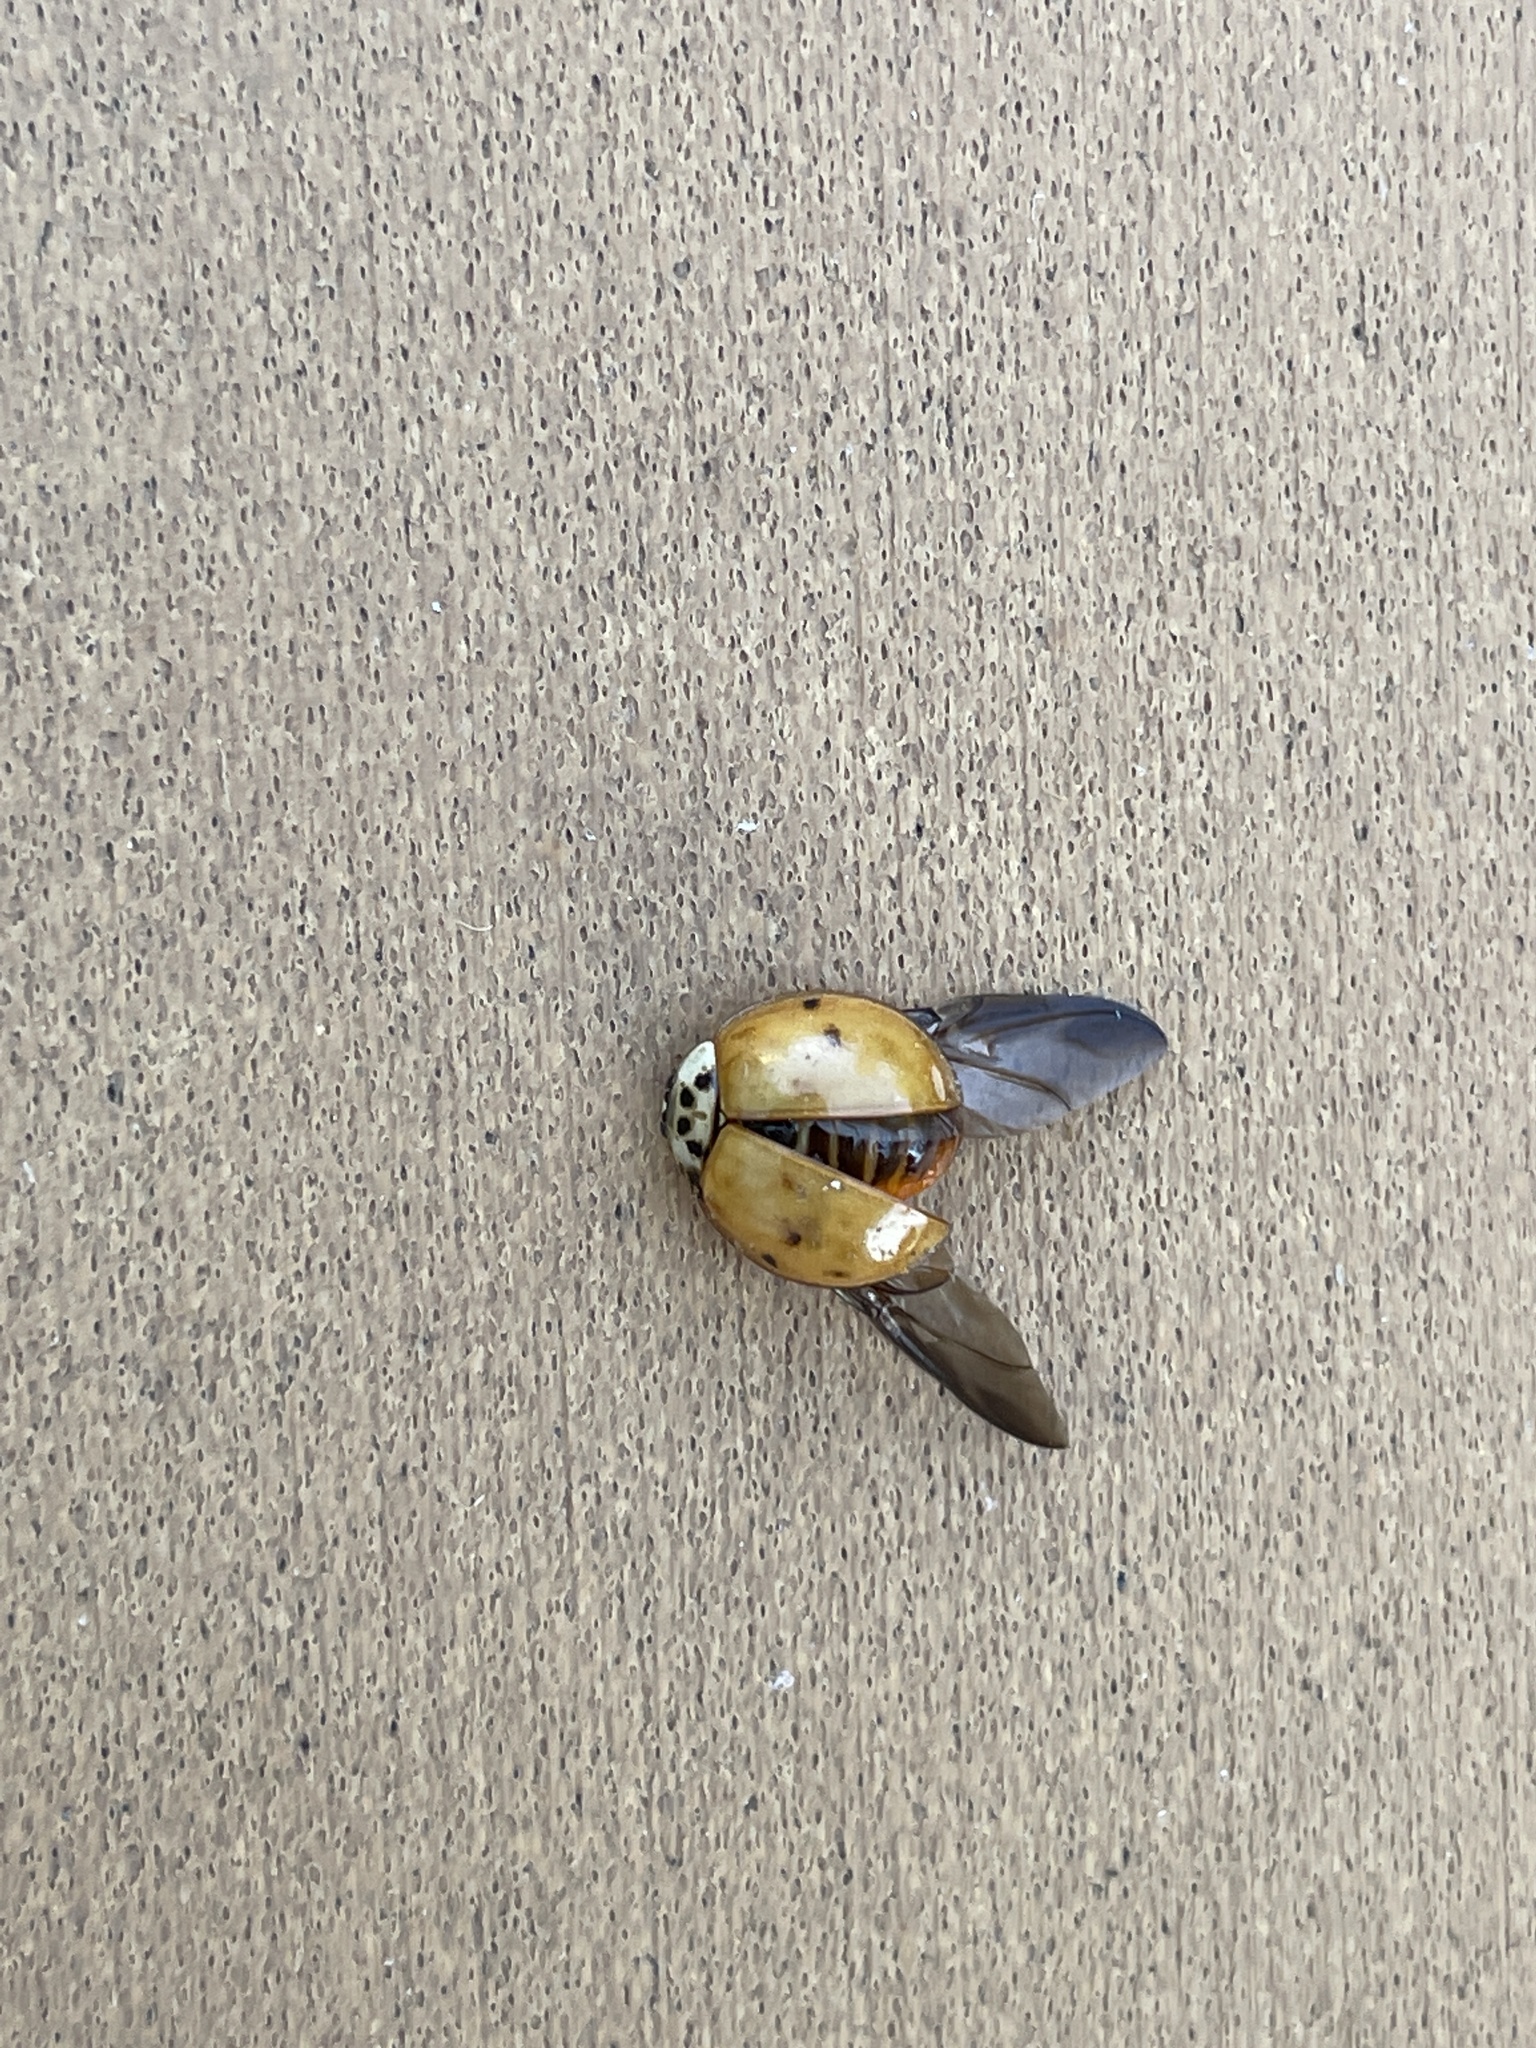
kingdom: Animalia
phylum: Arthropoda
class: Insecta
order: Coleoptera
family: Coccinellidae
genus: Harmonia
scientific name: Harmonia axyridis
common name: Harlequin ladybird
